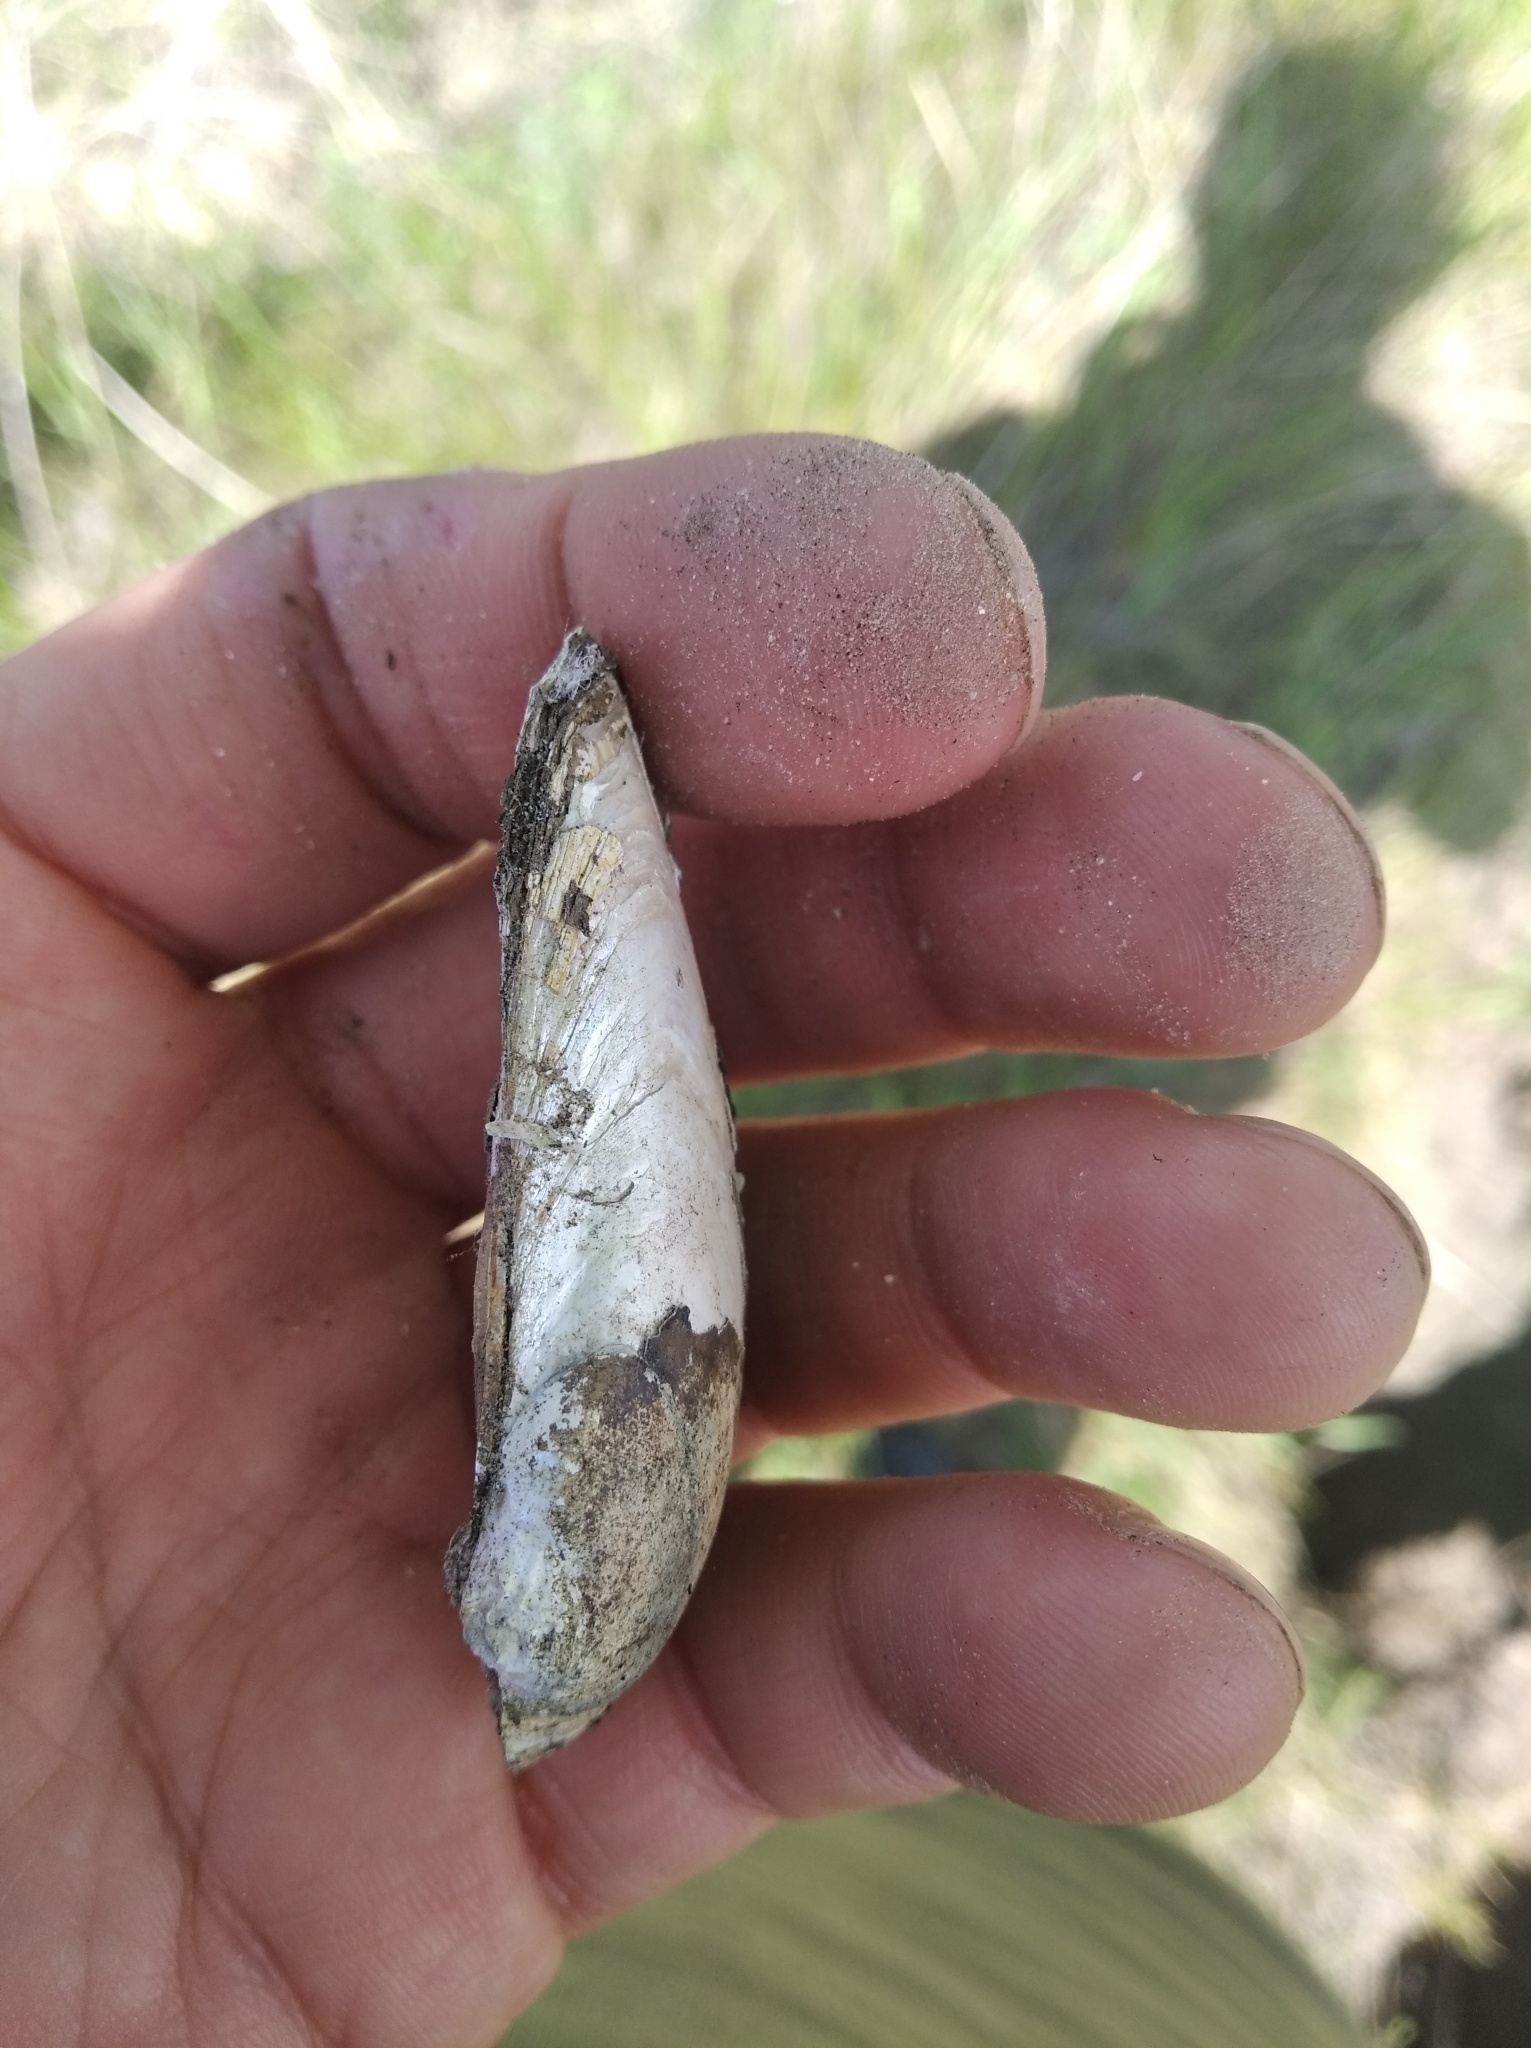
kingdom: Animalia
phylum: Mollusca
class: Bivalvia
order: Unionida
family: Unionidae
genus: Unio
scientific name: Unio tumidus
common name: Swollen river mussel
